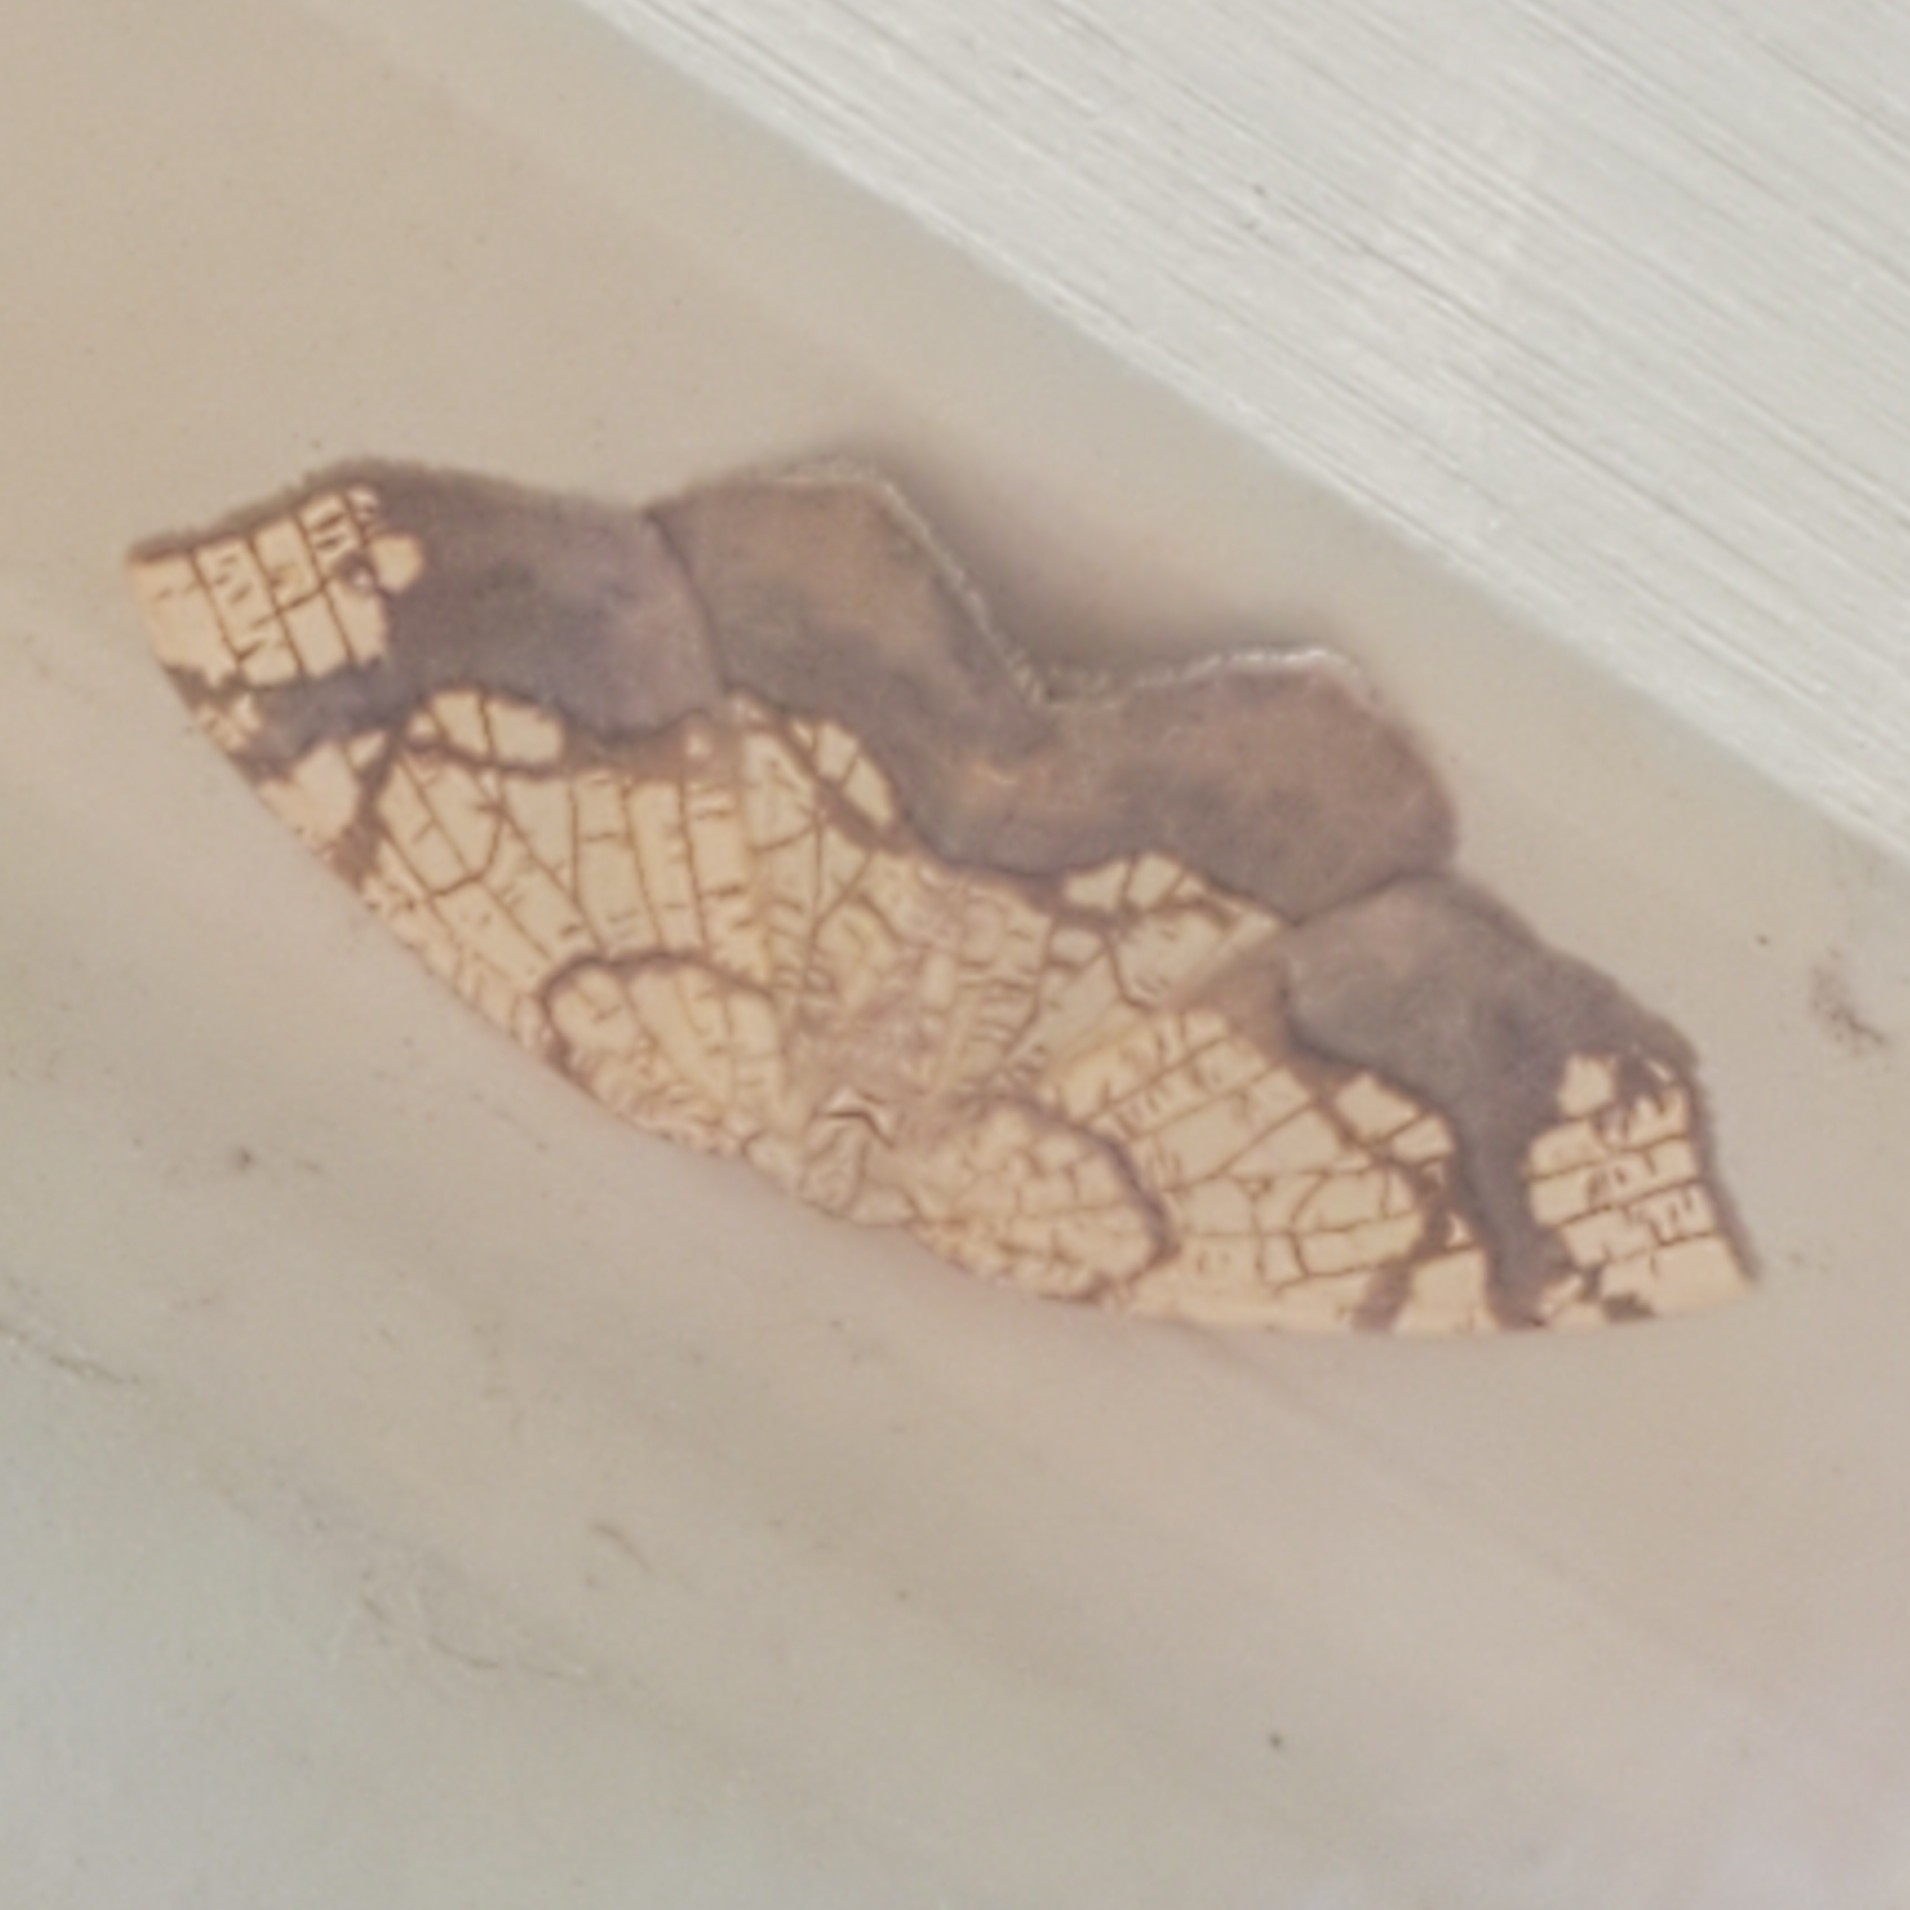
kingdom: Animalia
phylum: Arthropoda
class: Insecta
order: Lepidoptera
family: Geometridae
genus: Nematocampa
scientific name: Nematocampa resistaria
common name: Horned spanworm moth
